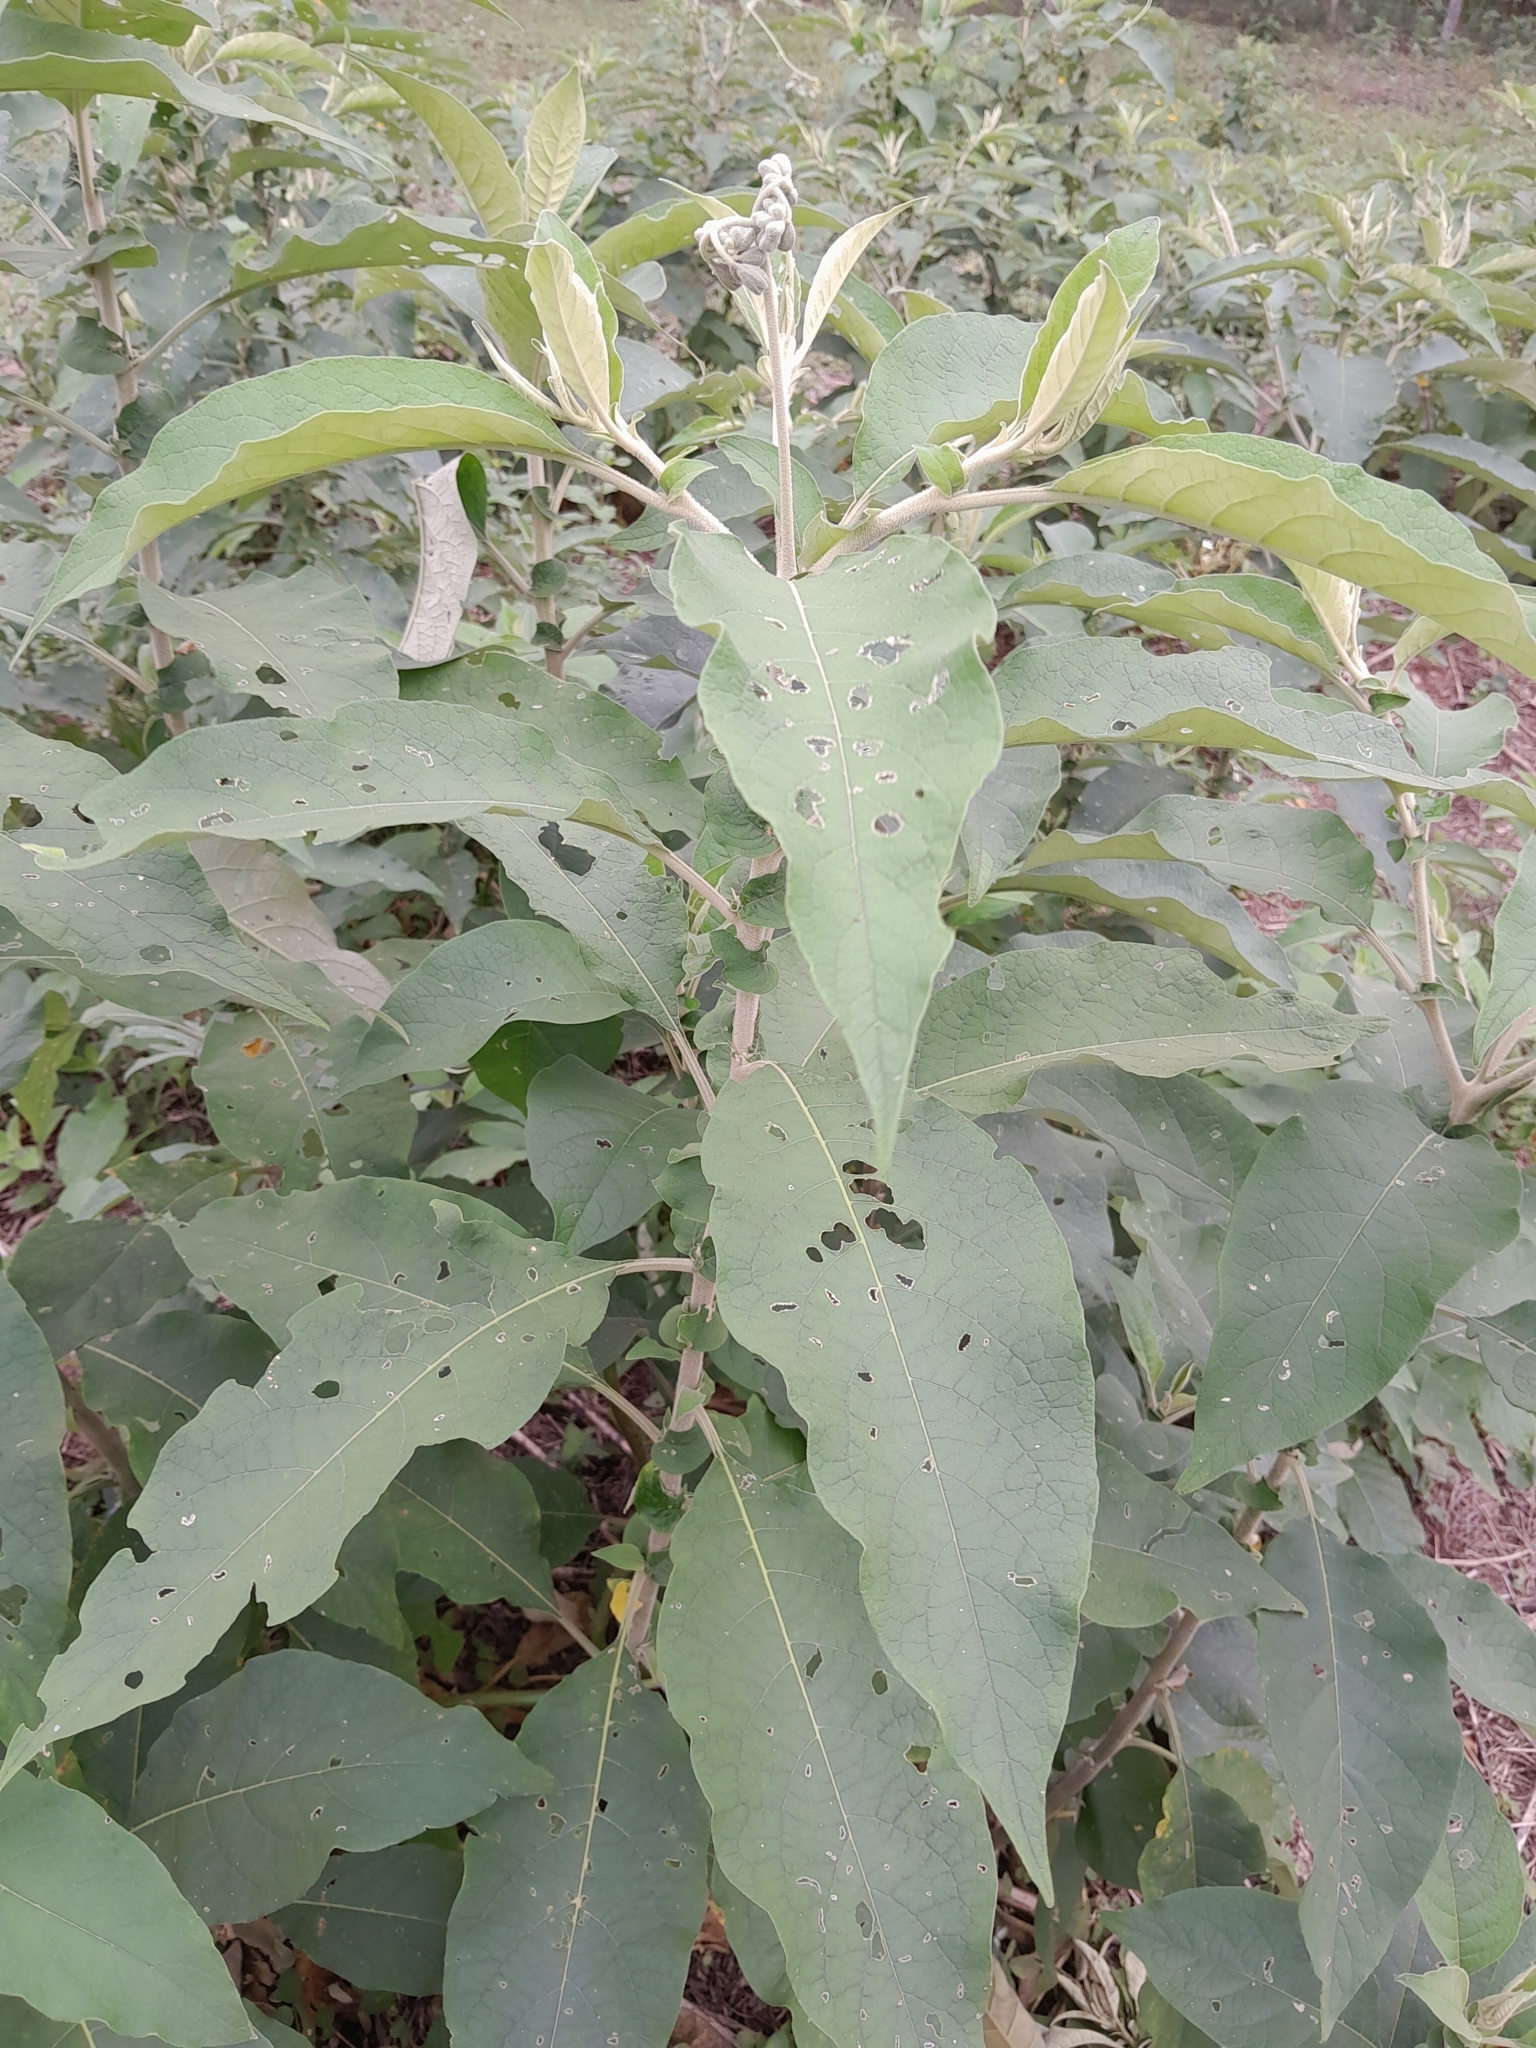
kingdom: Plantae
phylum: Tracheophyta
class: Magnoliopsida
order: Solanales
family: Solanaceae
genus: Solanum
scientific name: Solanum granulosoleprosum
